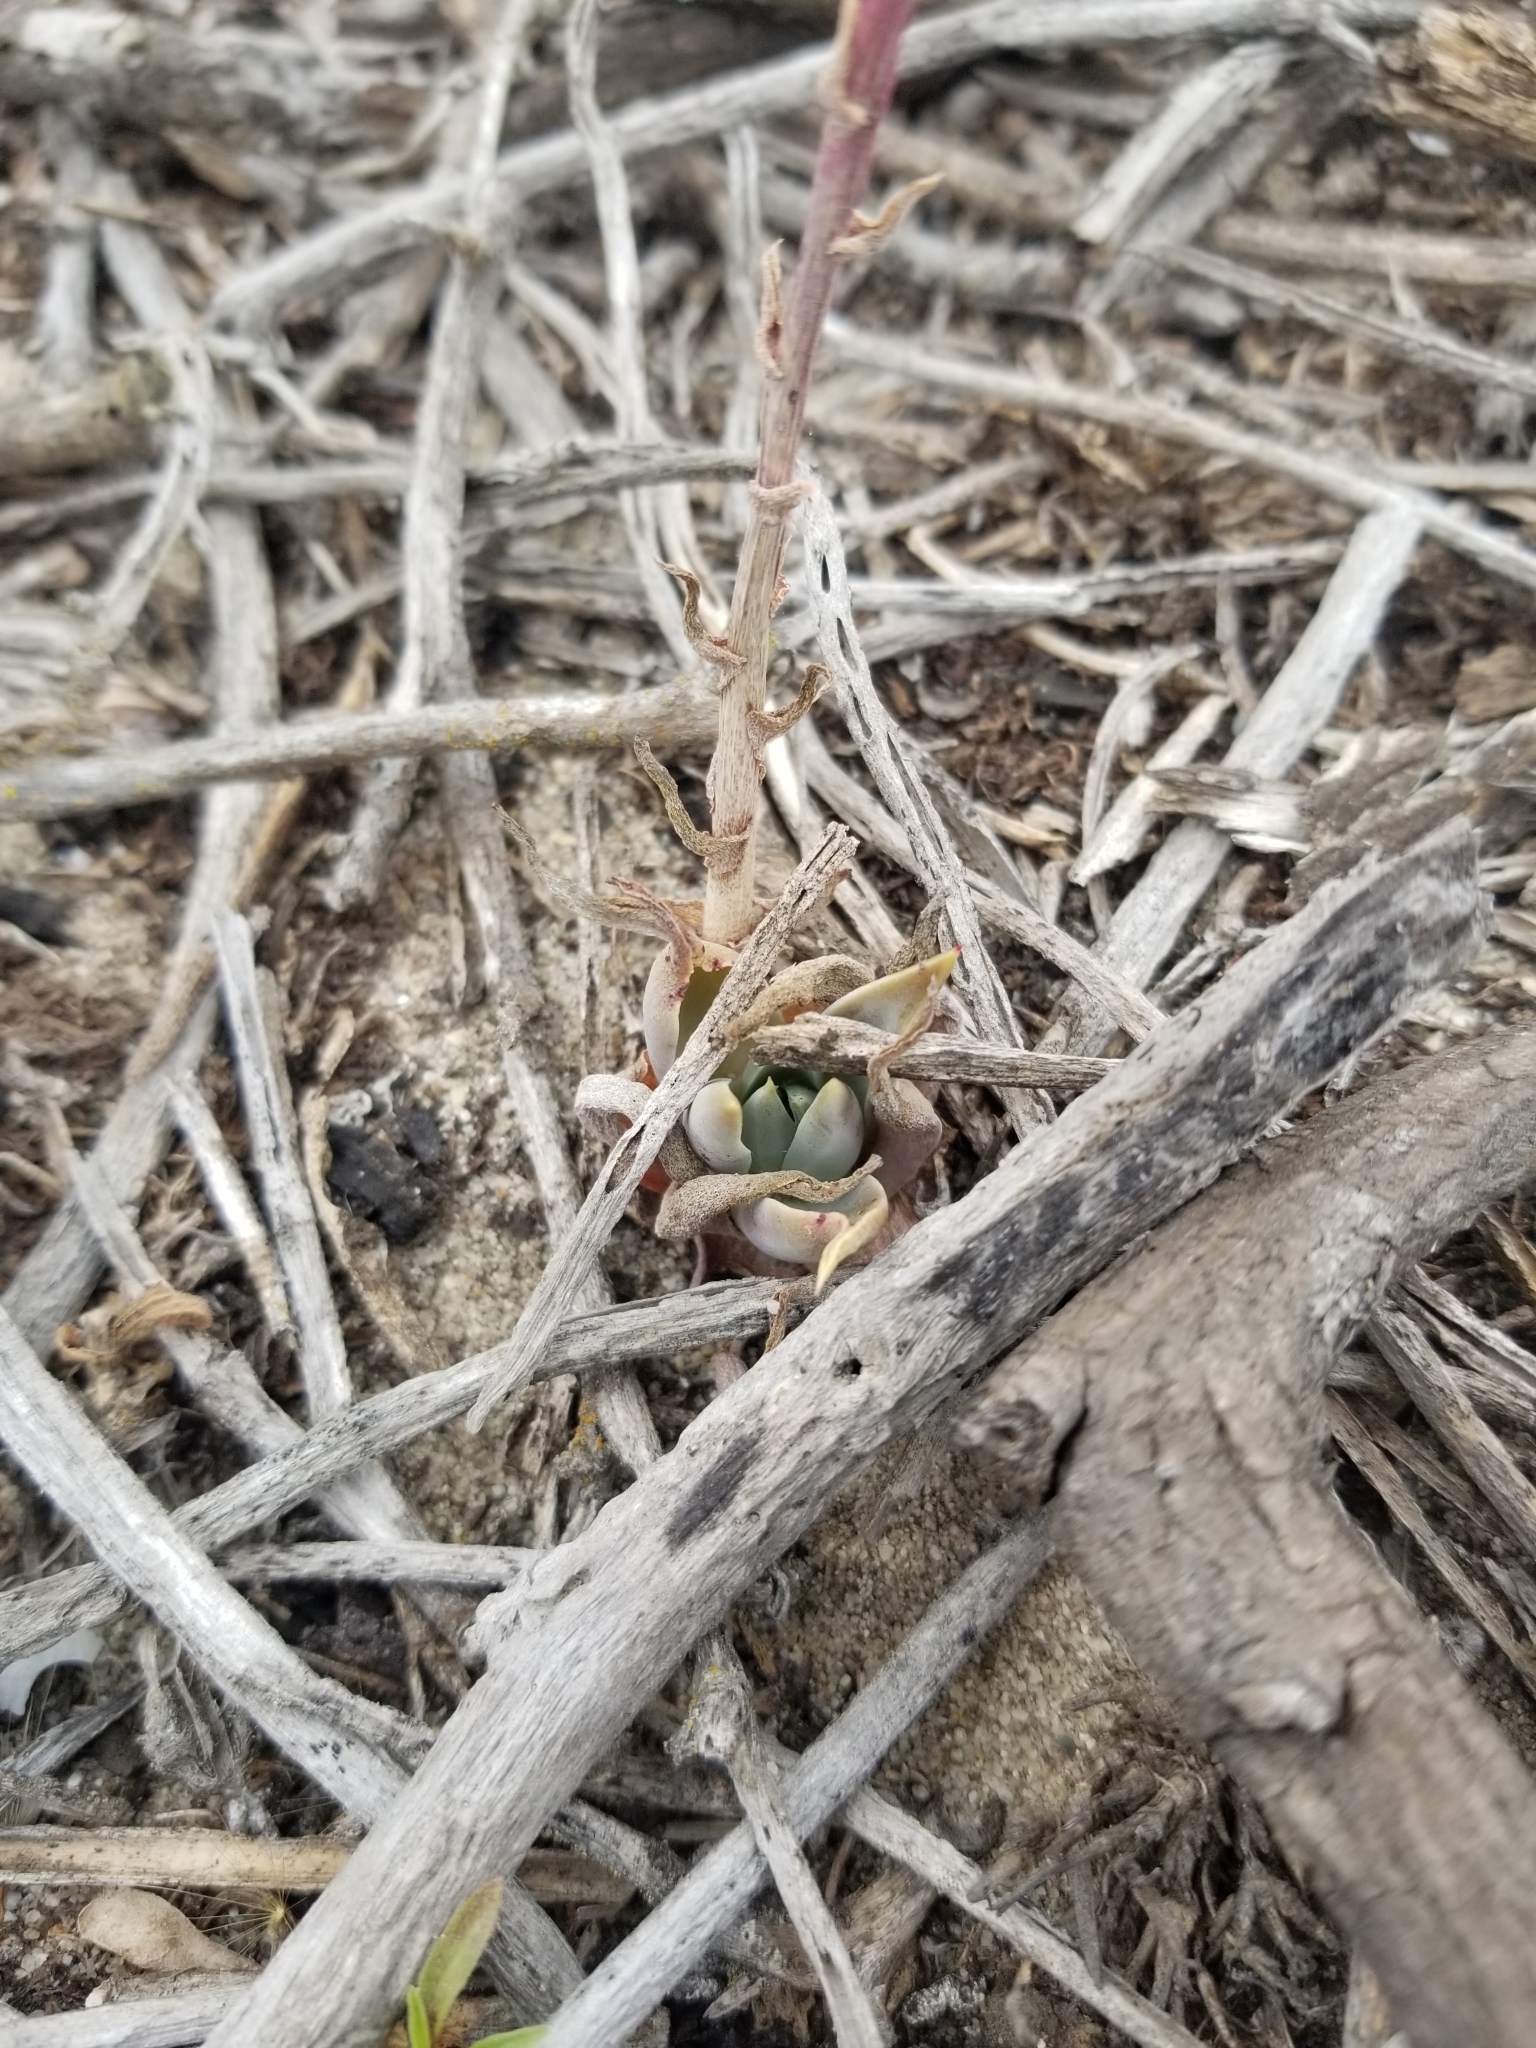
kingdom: Plantae
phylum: Tracheophyta
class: Magnoliopsida
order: Saxifragales
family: Crassulaceae
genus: Dudleya
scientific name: Dudleya lanceolata
